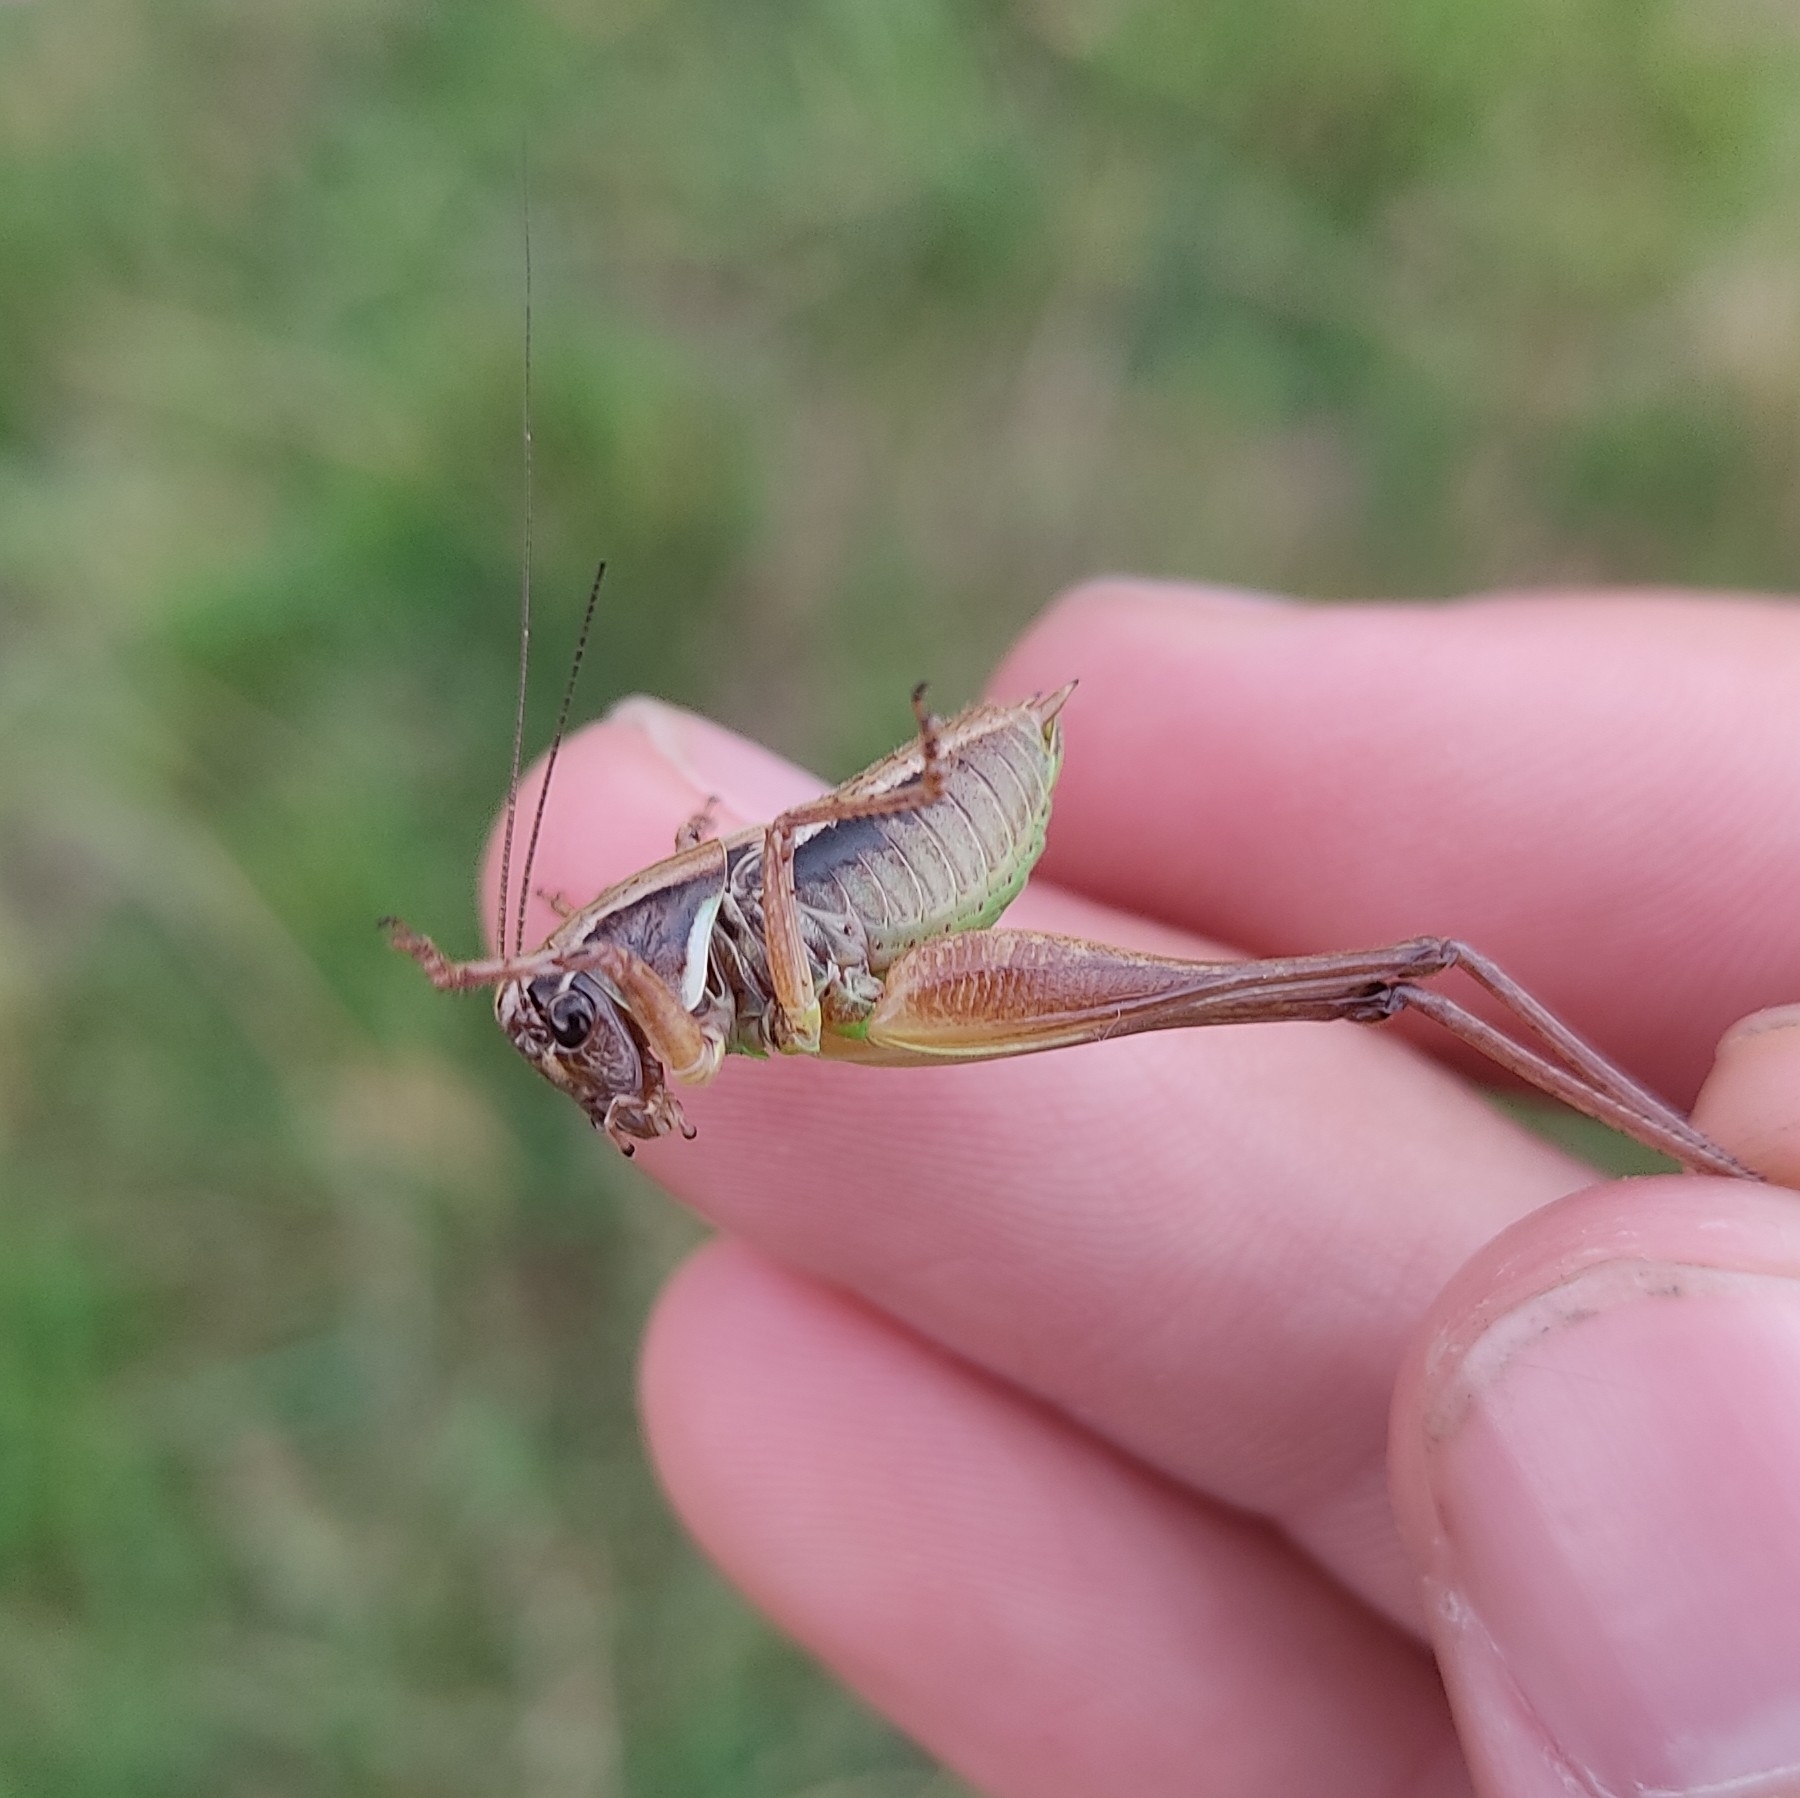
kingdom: Animalia
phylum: Arthropoda
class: Insecta
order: Orthoptera
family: Tettigoniidae
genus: Metrioptera
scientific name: Metrioptera saussuriana
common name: Purple meadow bush-cricket
